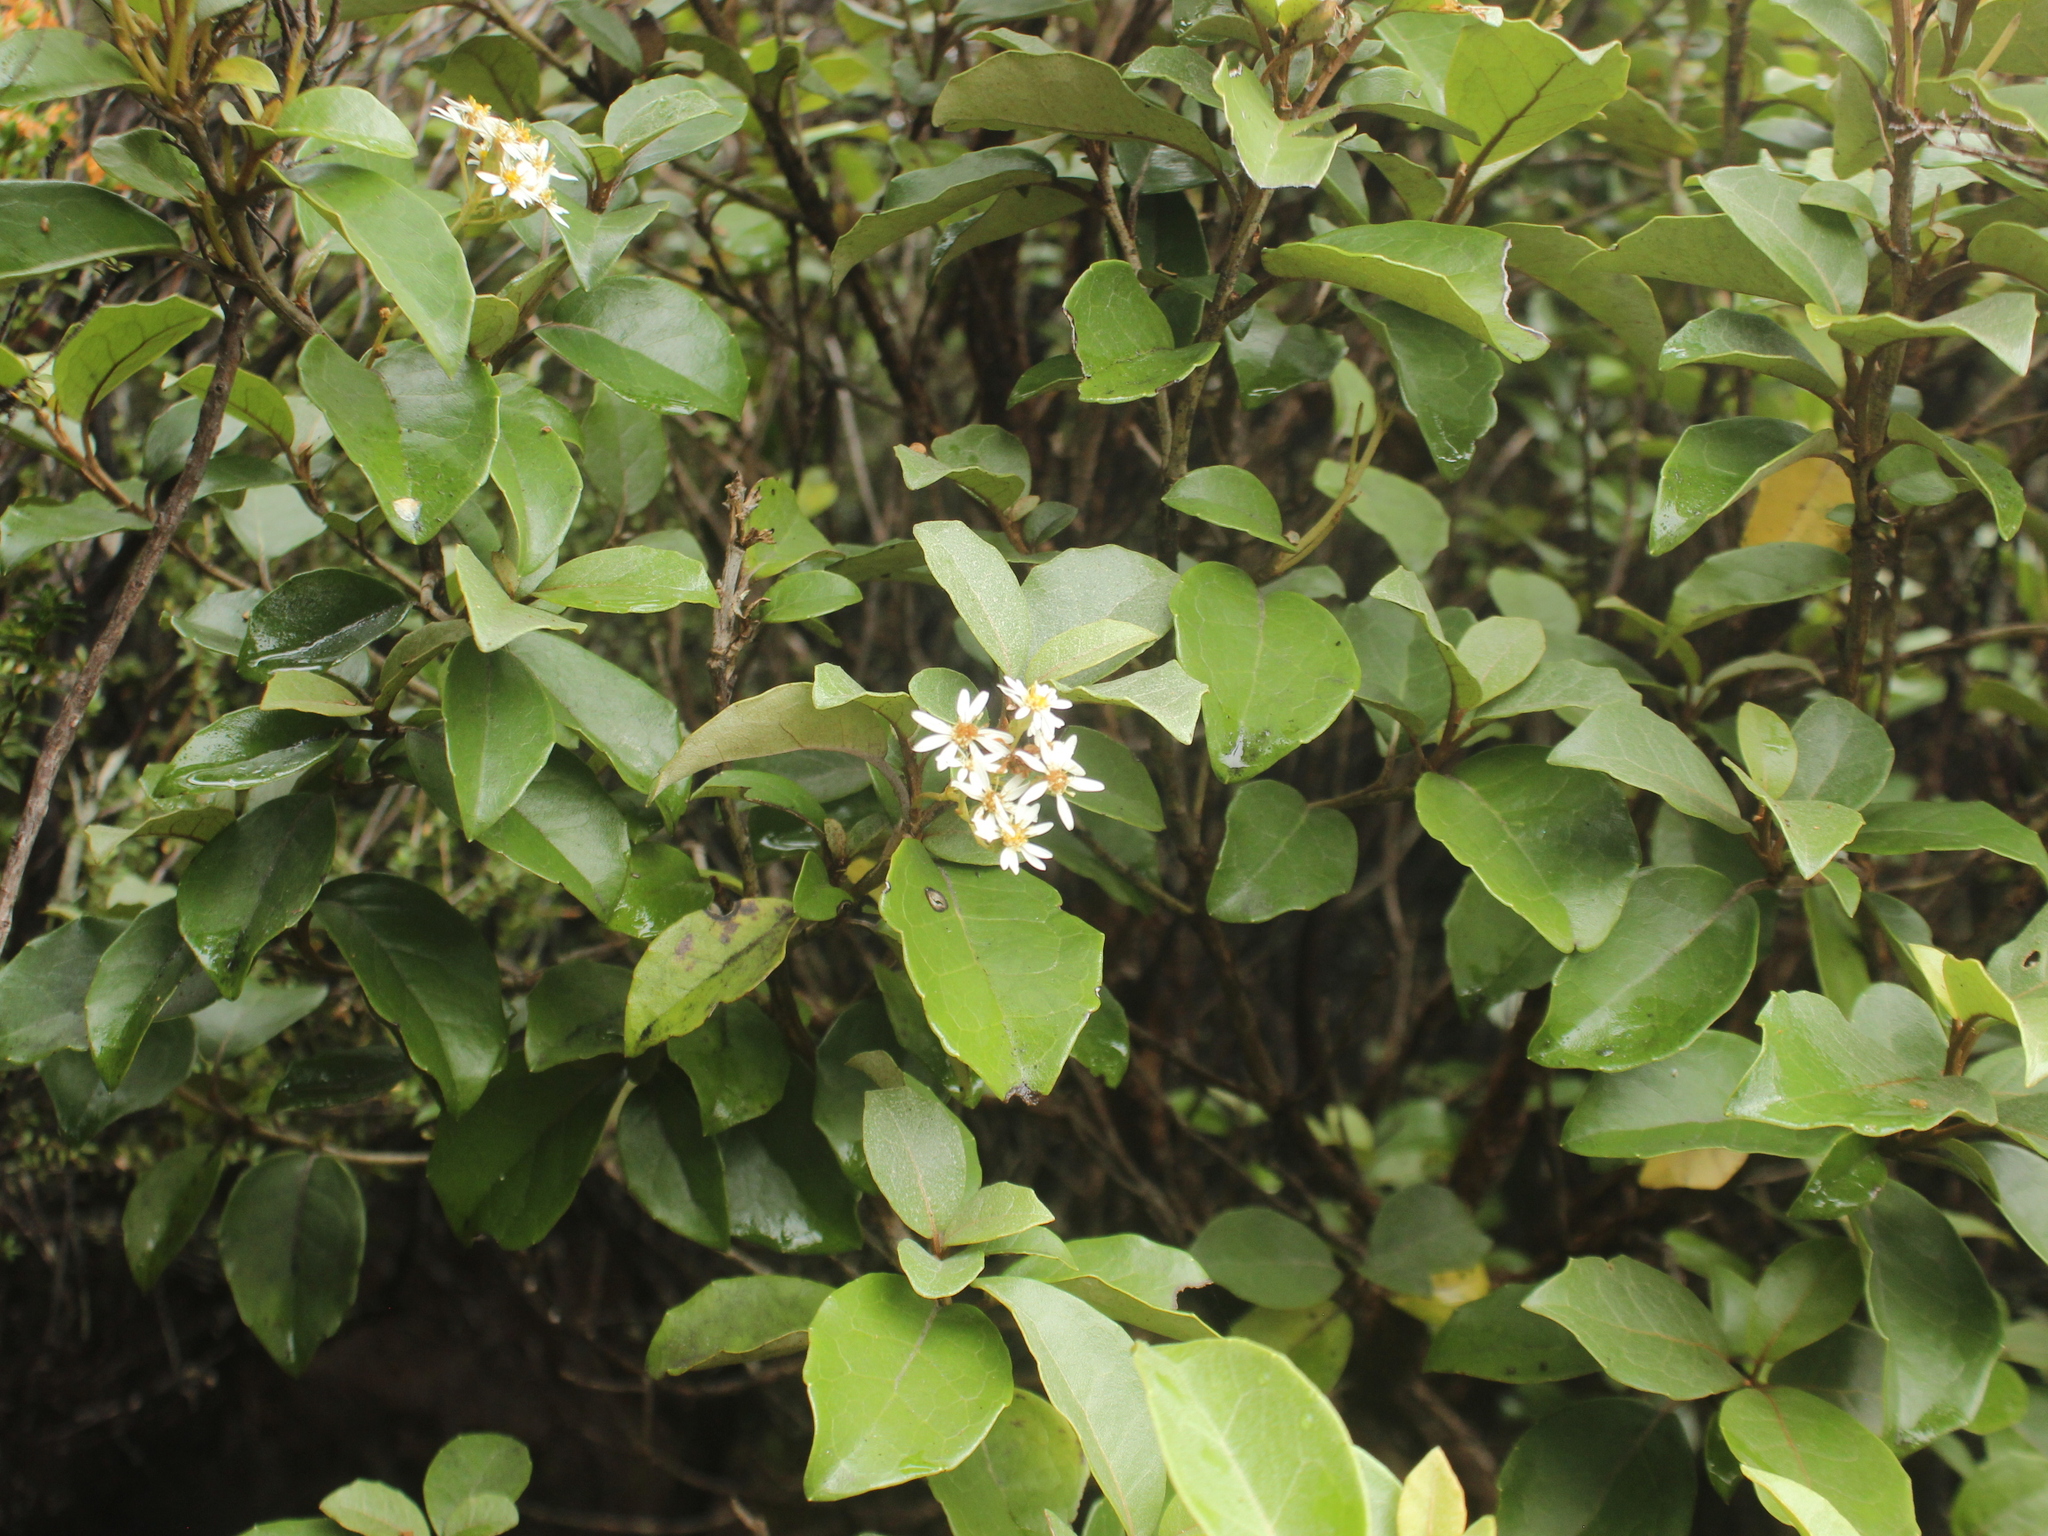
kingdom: Plantae
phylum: Tracheophyta
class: Magnoliopsida
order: Asterales
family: Asteraceae
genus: Olearia
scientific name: Olearia arborescens
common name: Glossy tree daisy
